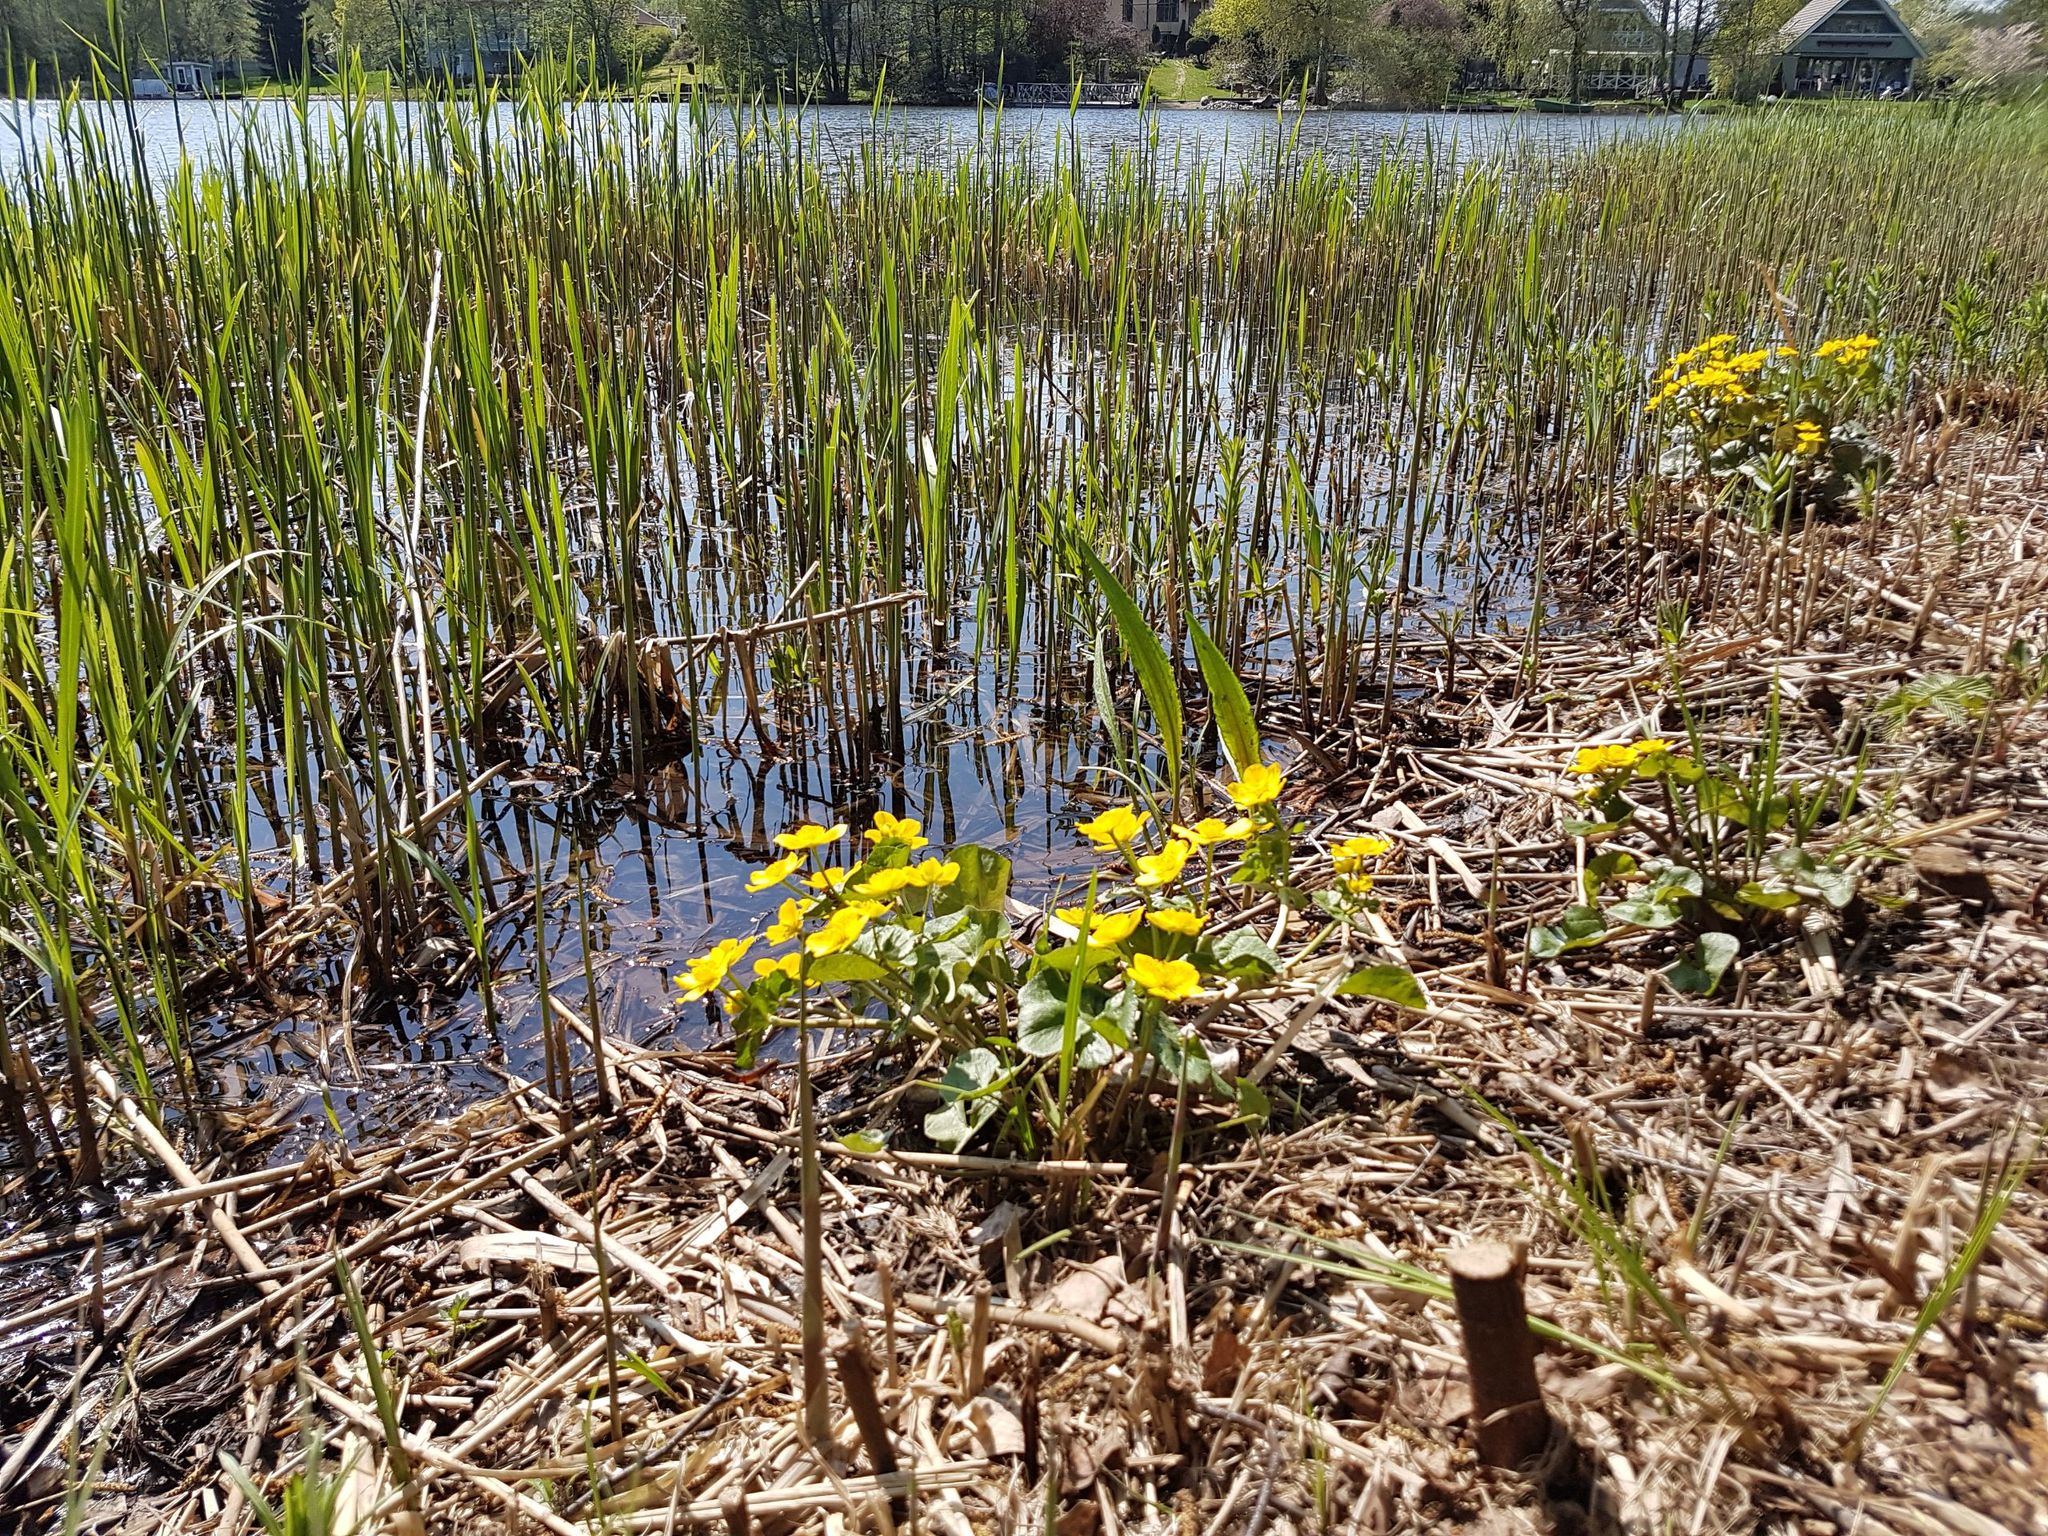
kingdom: Plantae
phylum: Tracheophyta
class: Magnoliopsida
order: Ranunculales
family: Ranunculaceae
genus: Caltha
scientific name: Caltha palustris
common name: Marsh marigold
